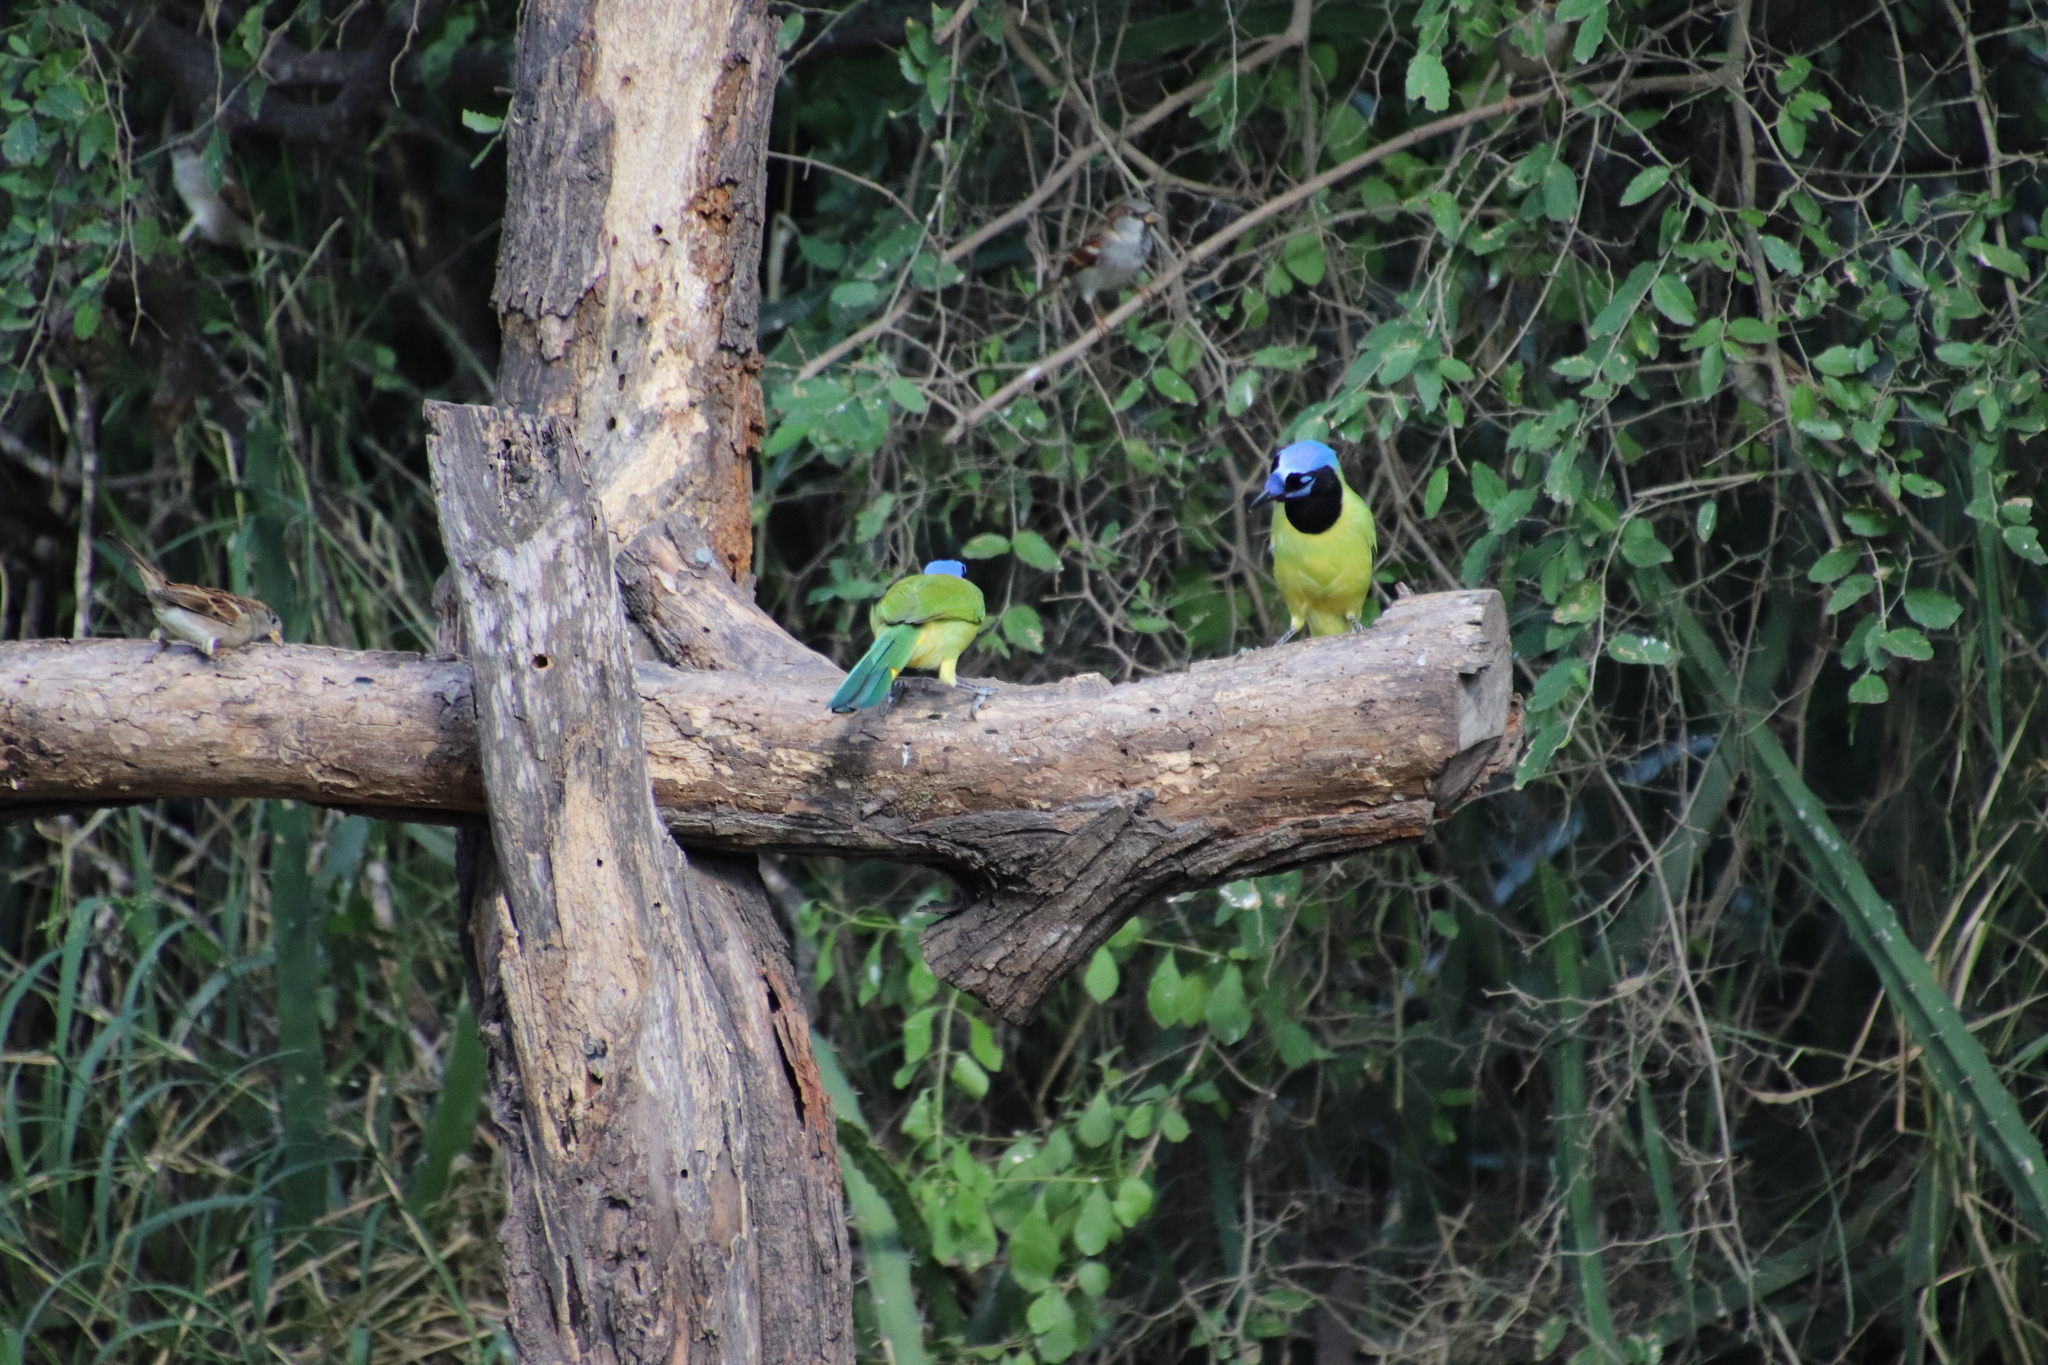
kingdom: Animalia
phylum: Chordata
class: Aves
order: Passeriformes
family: Corvidae
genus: Cyanocorax
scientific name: Cyanocorax yncas
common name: Green jay
